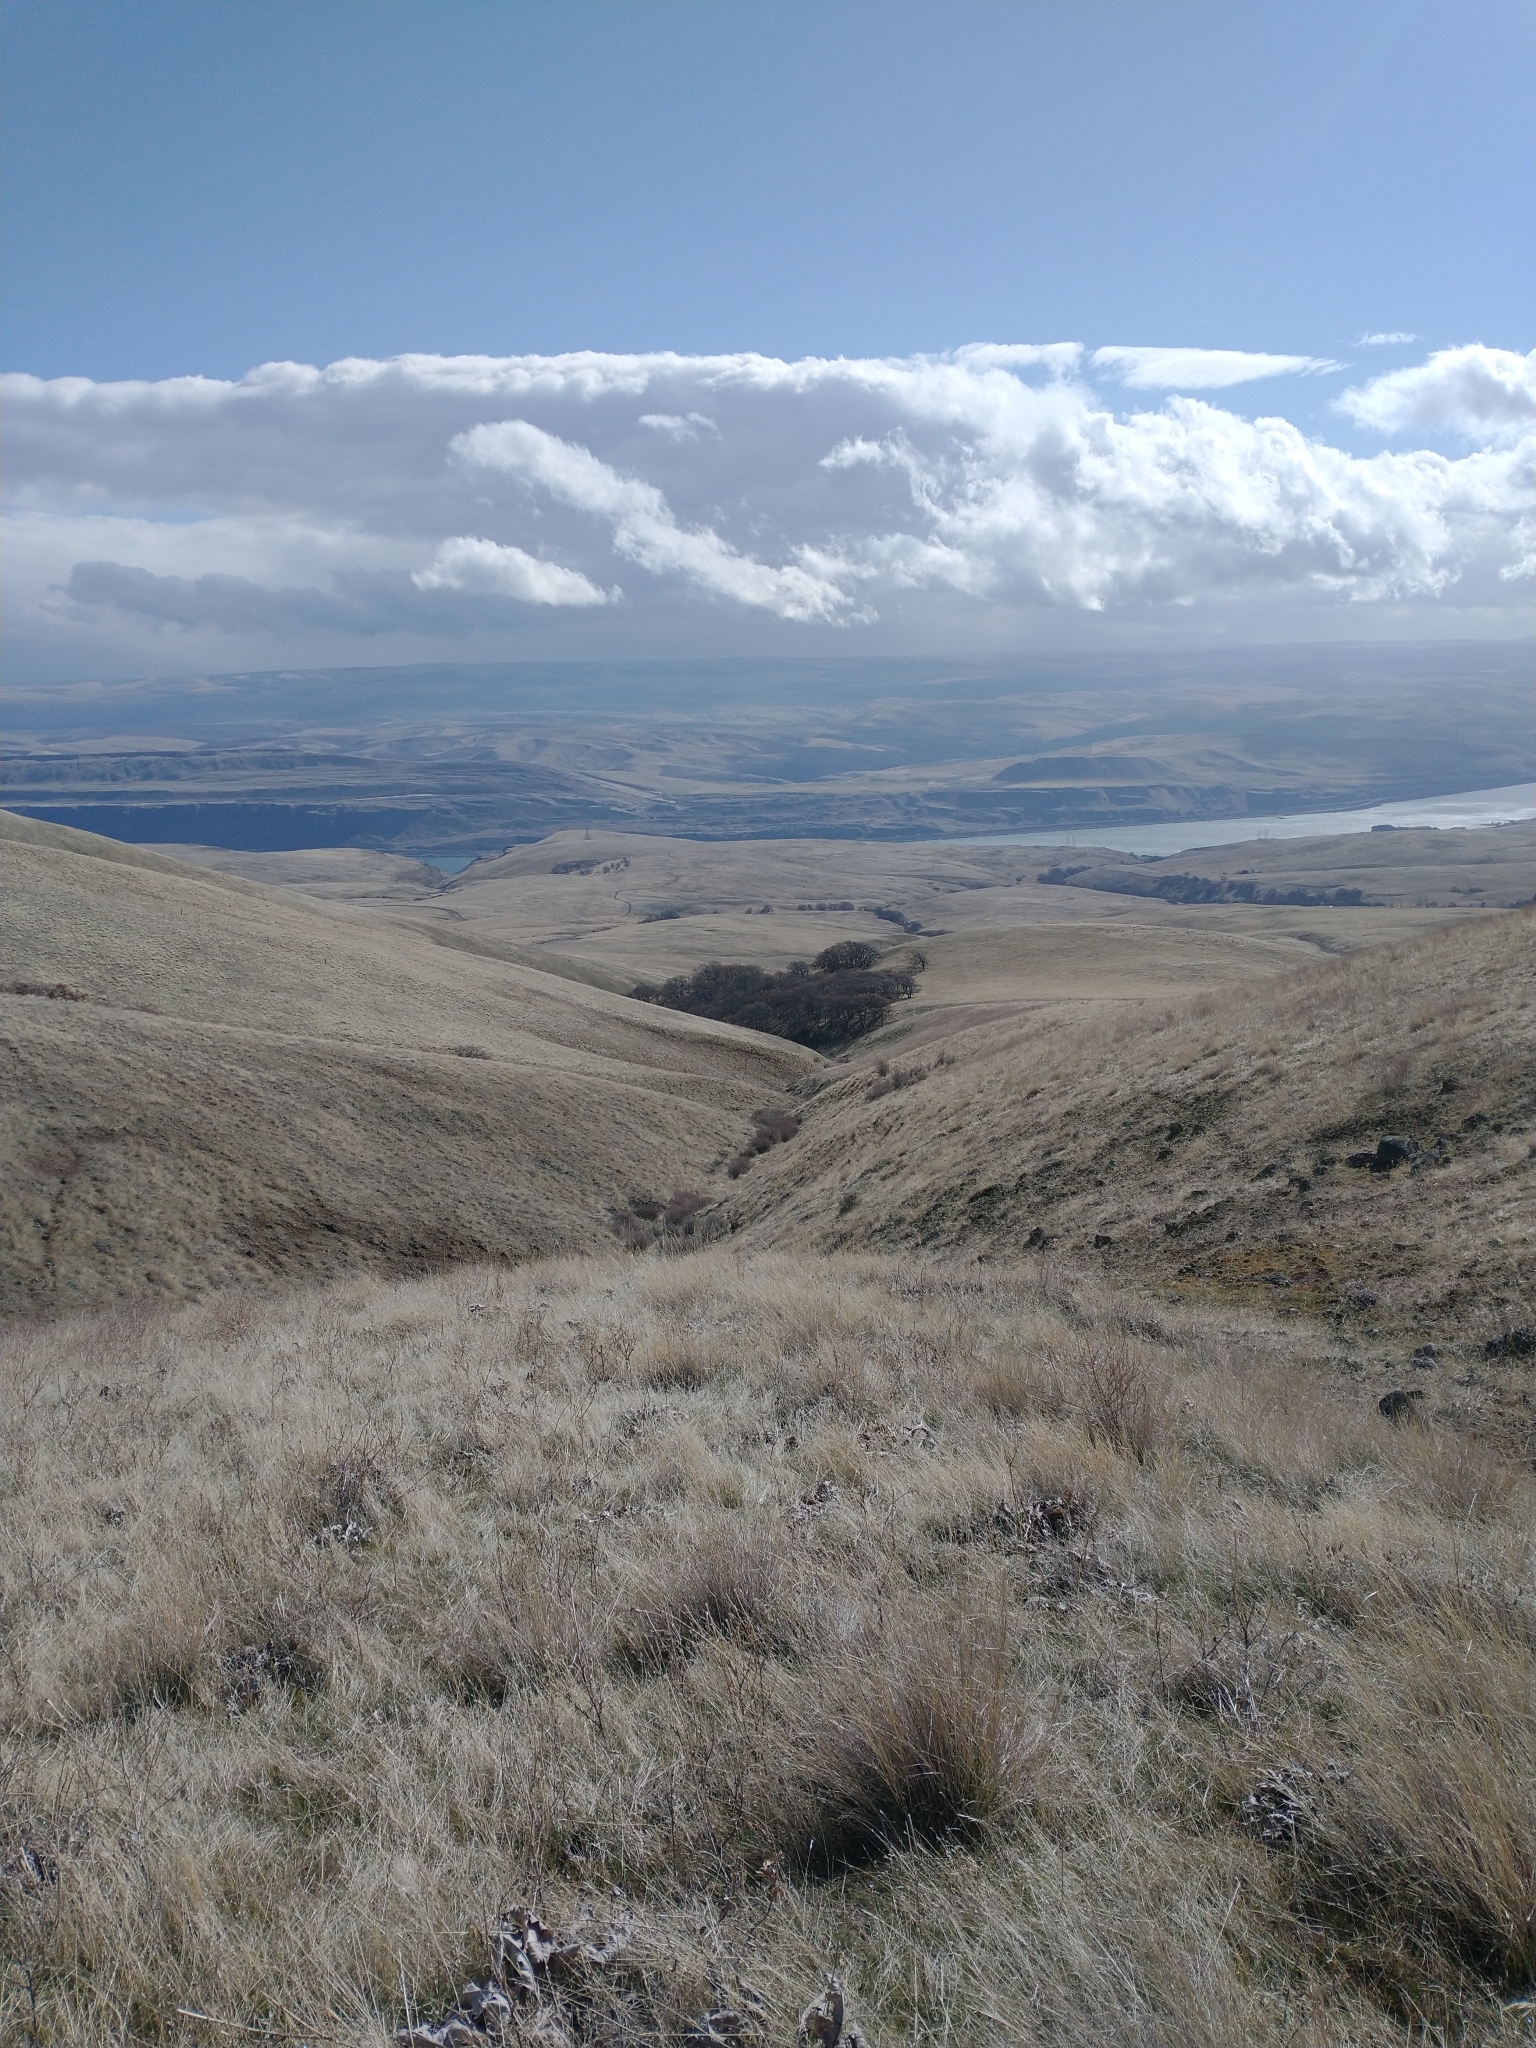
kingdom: Plantae
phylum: Tracheophyta
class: Magnoliopsida
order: Fagales
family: Fagaceae
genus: Quercus
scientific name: Quercus garryana
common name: Garry oak
